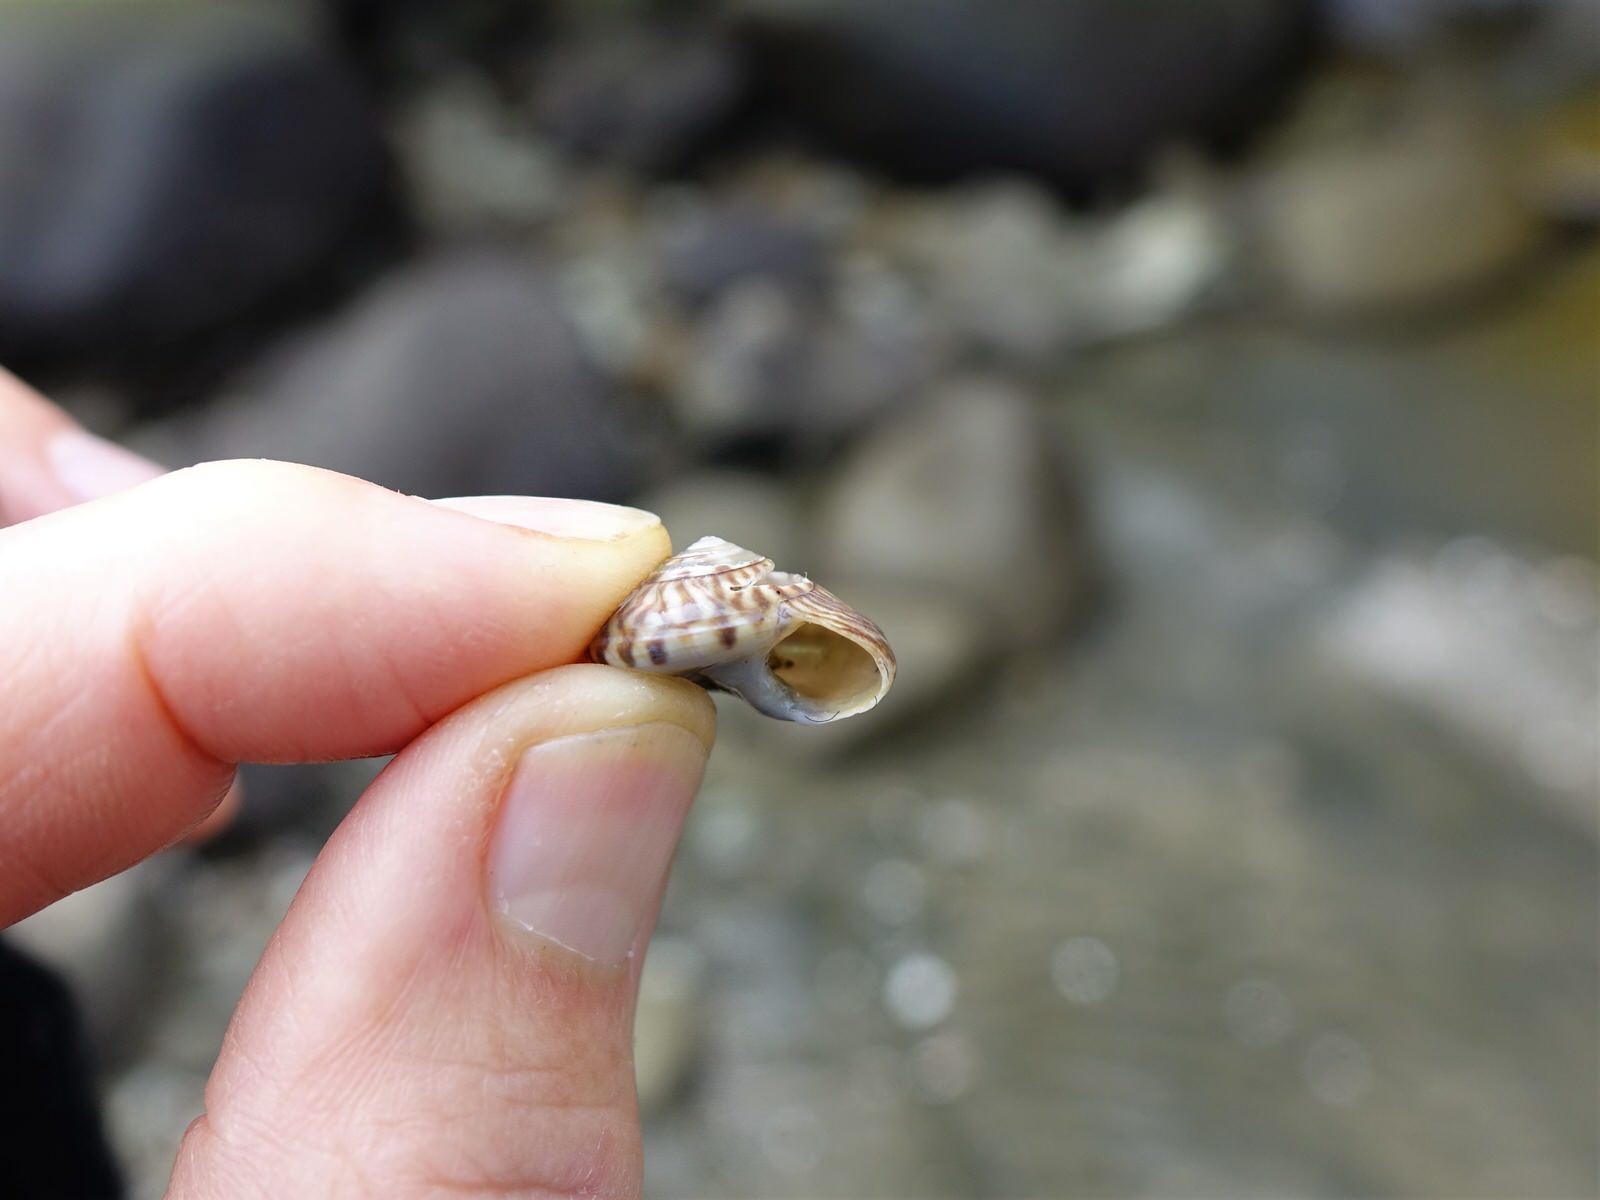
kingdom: Animalia
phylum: Mollusca
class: Gastropoda
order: Trochida
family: Trochidae
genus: Zethalia
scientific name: Zethalia zelandica
